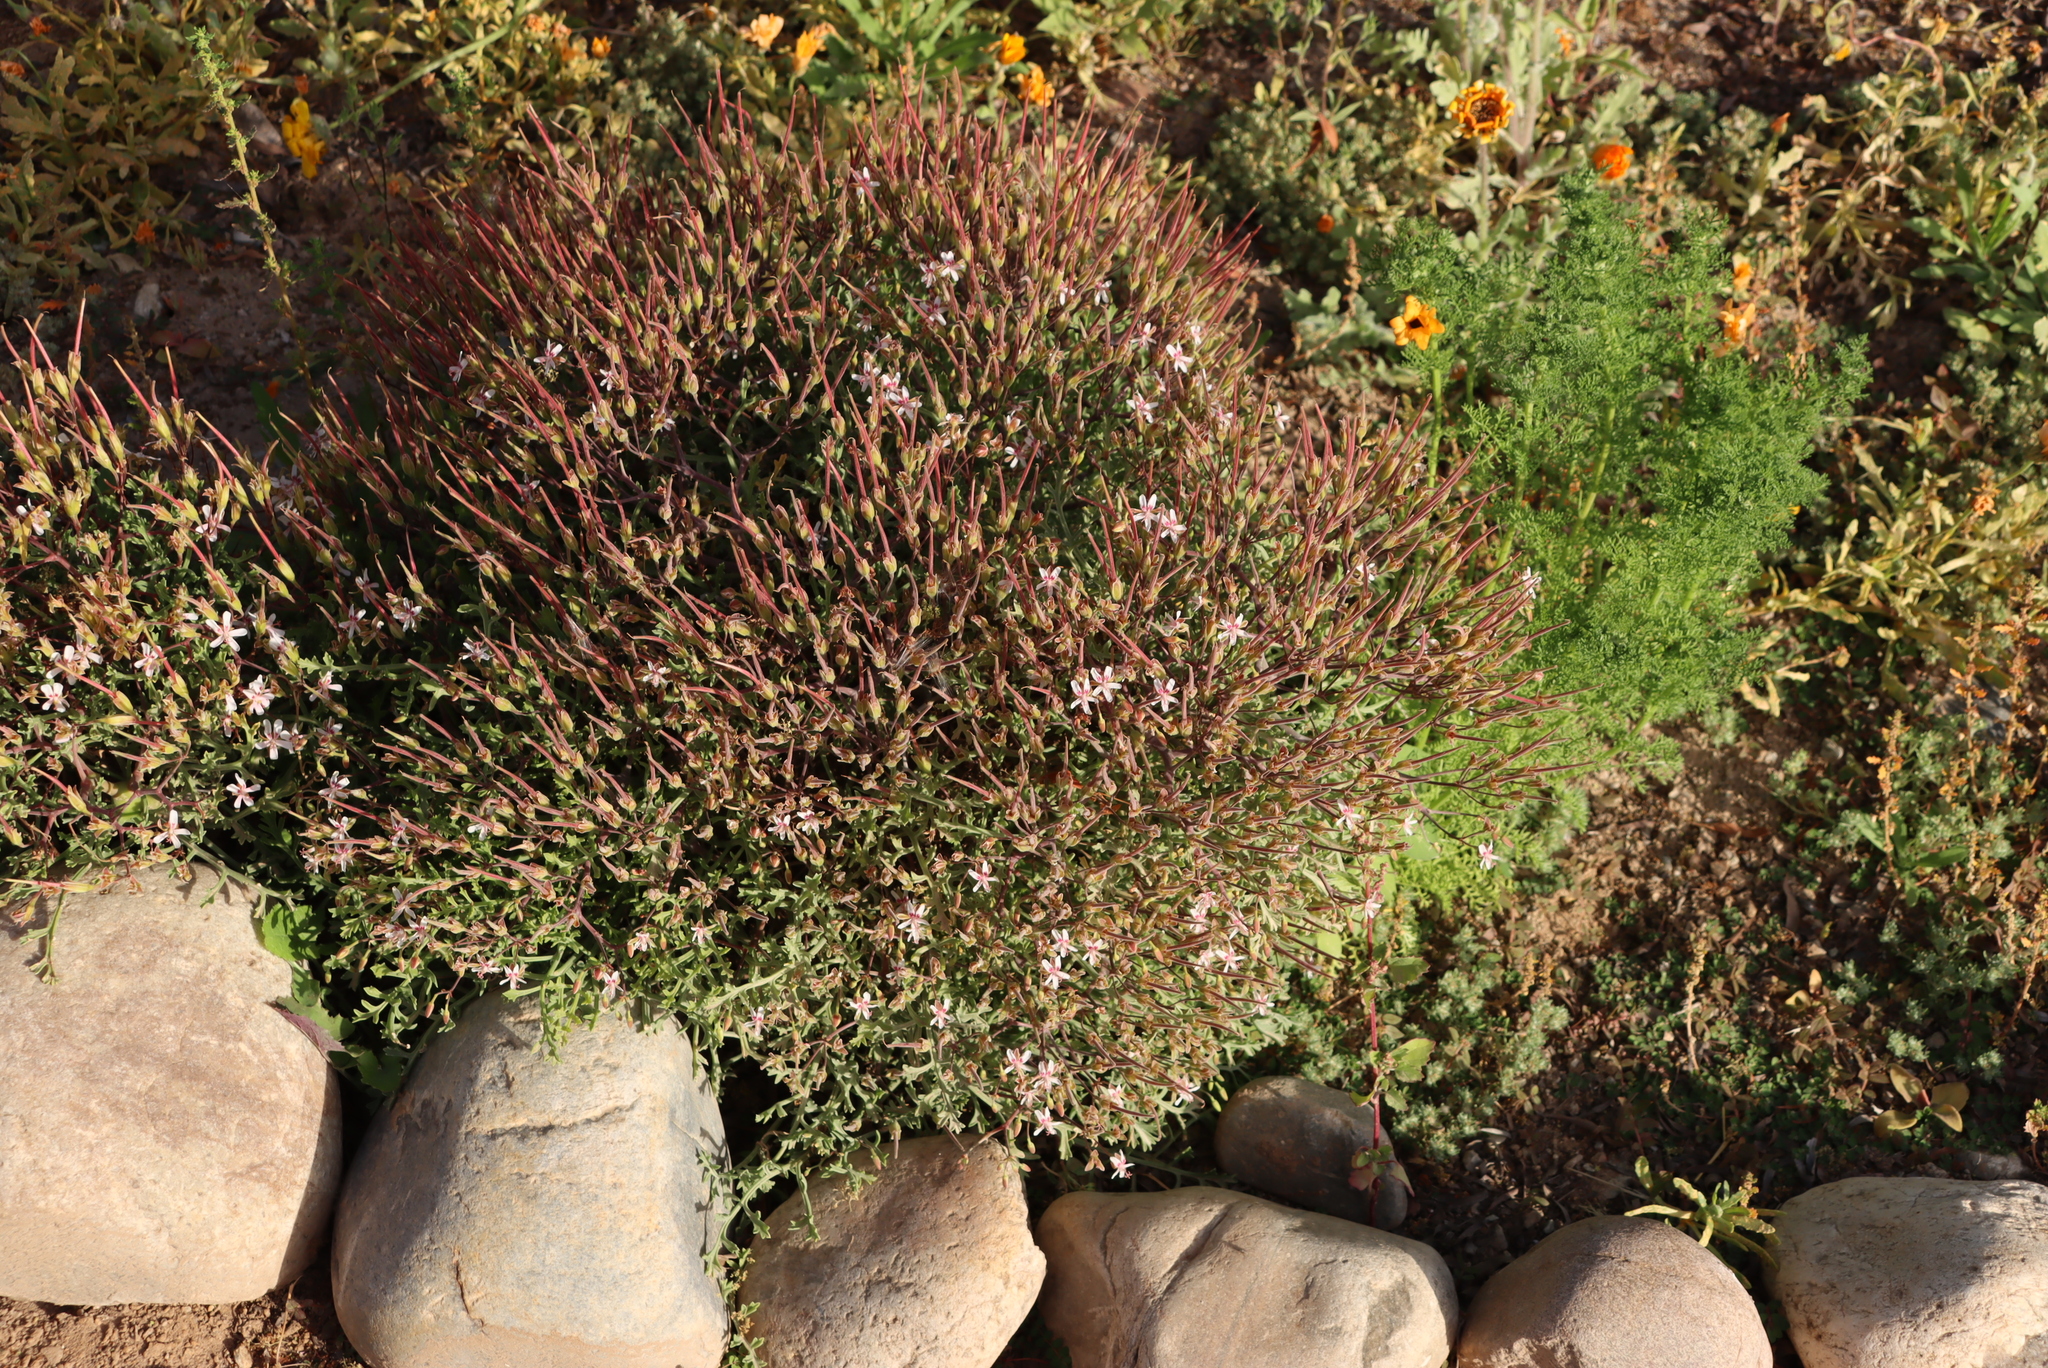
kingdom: Plantae
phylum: Tracheophyta
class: Magnoliopsida
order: Geraniales
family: Geraniaceae
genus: Pelargonium
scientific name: Pelargonium crithmifolium
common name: Samphire-leaf pelargonium
